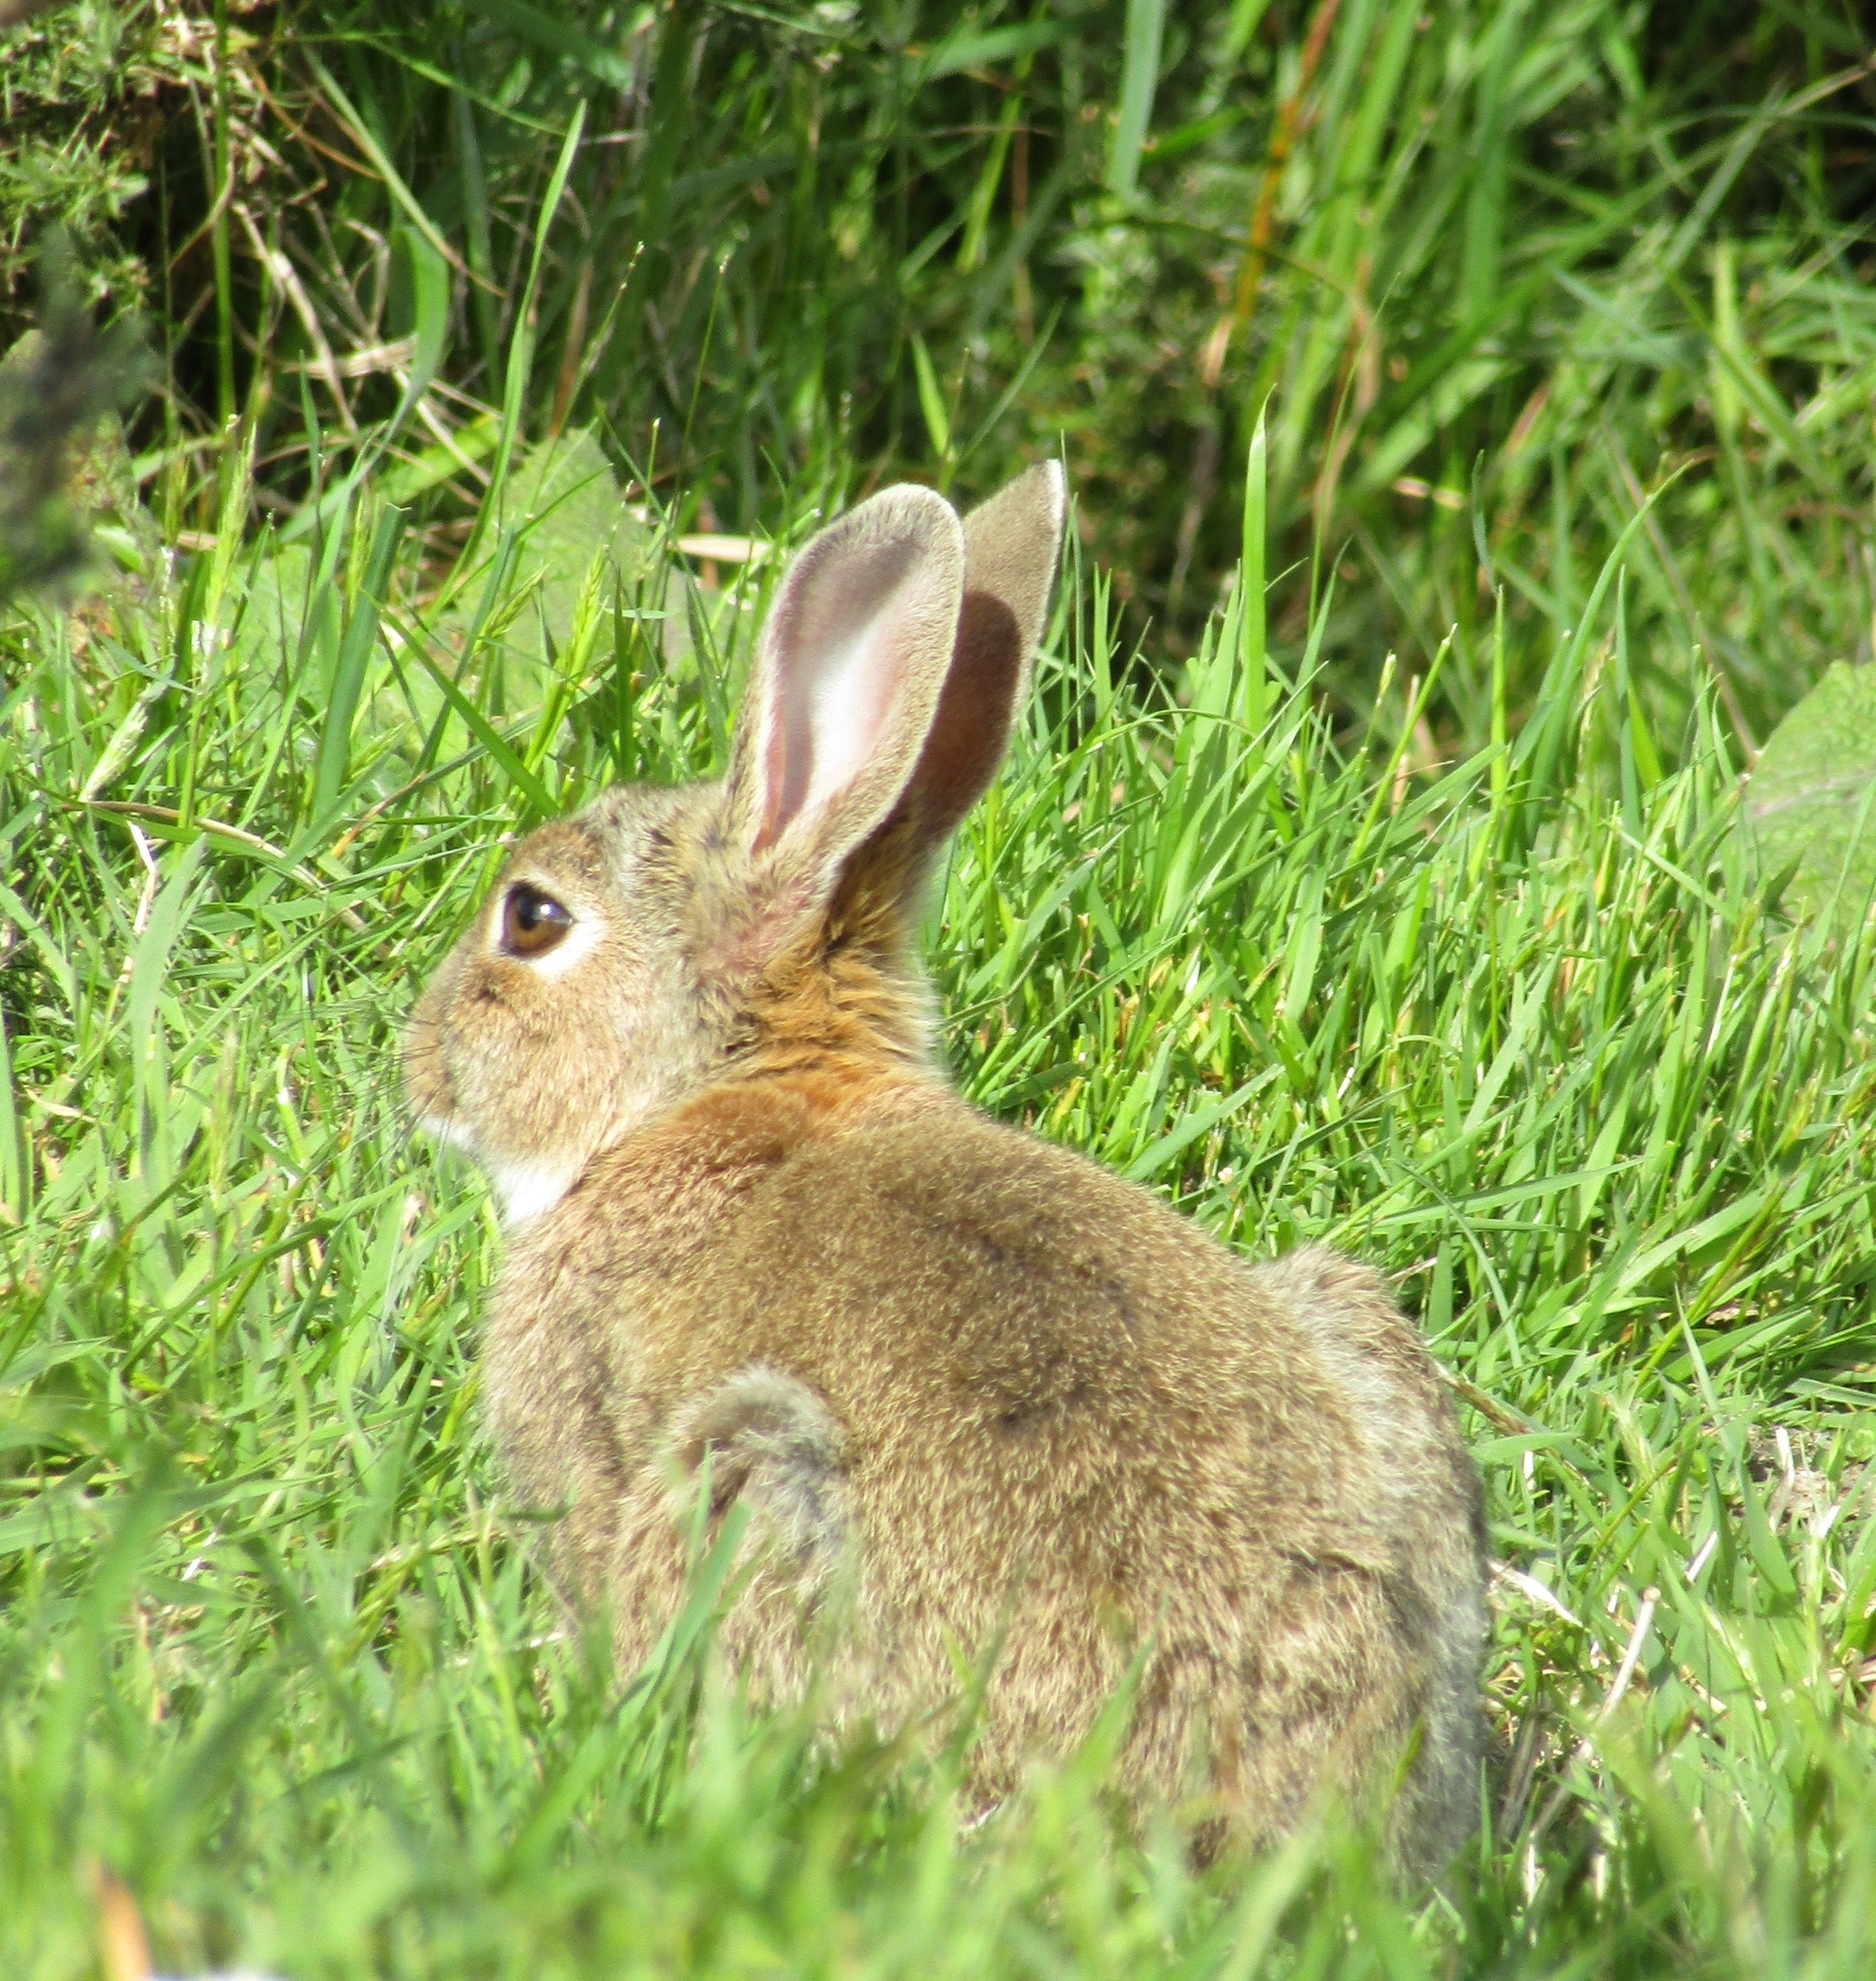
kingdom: Animalia
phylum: Chordata
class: Mammalia
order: Lagomorpha
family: Leporidae
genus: Oryctolagus
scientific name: Oryctolagus cuniculus
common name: European rabbit
